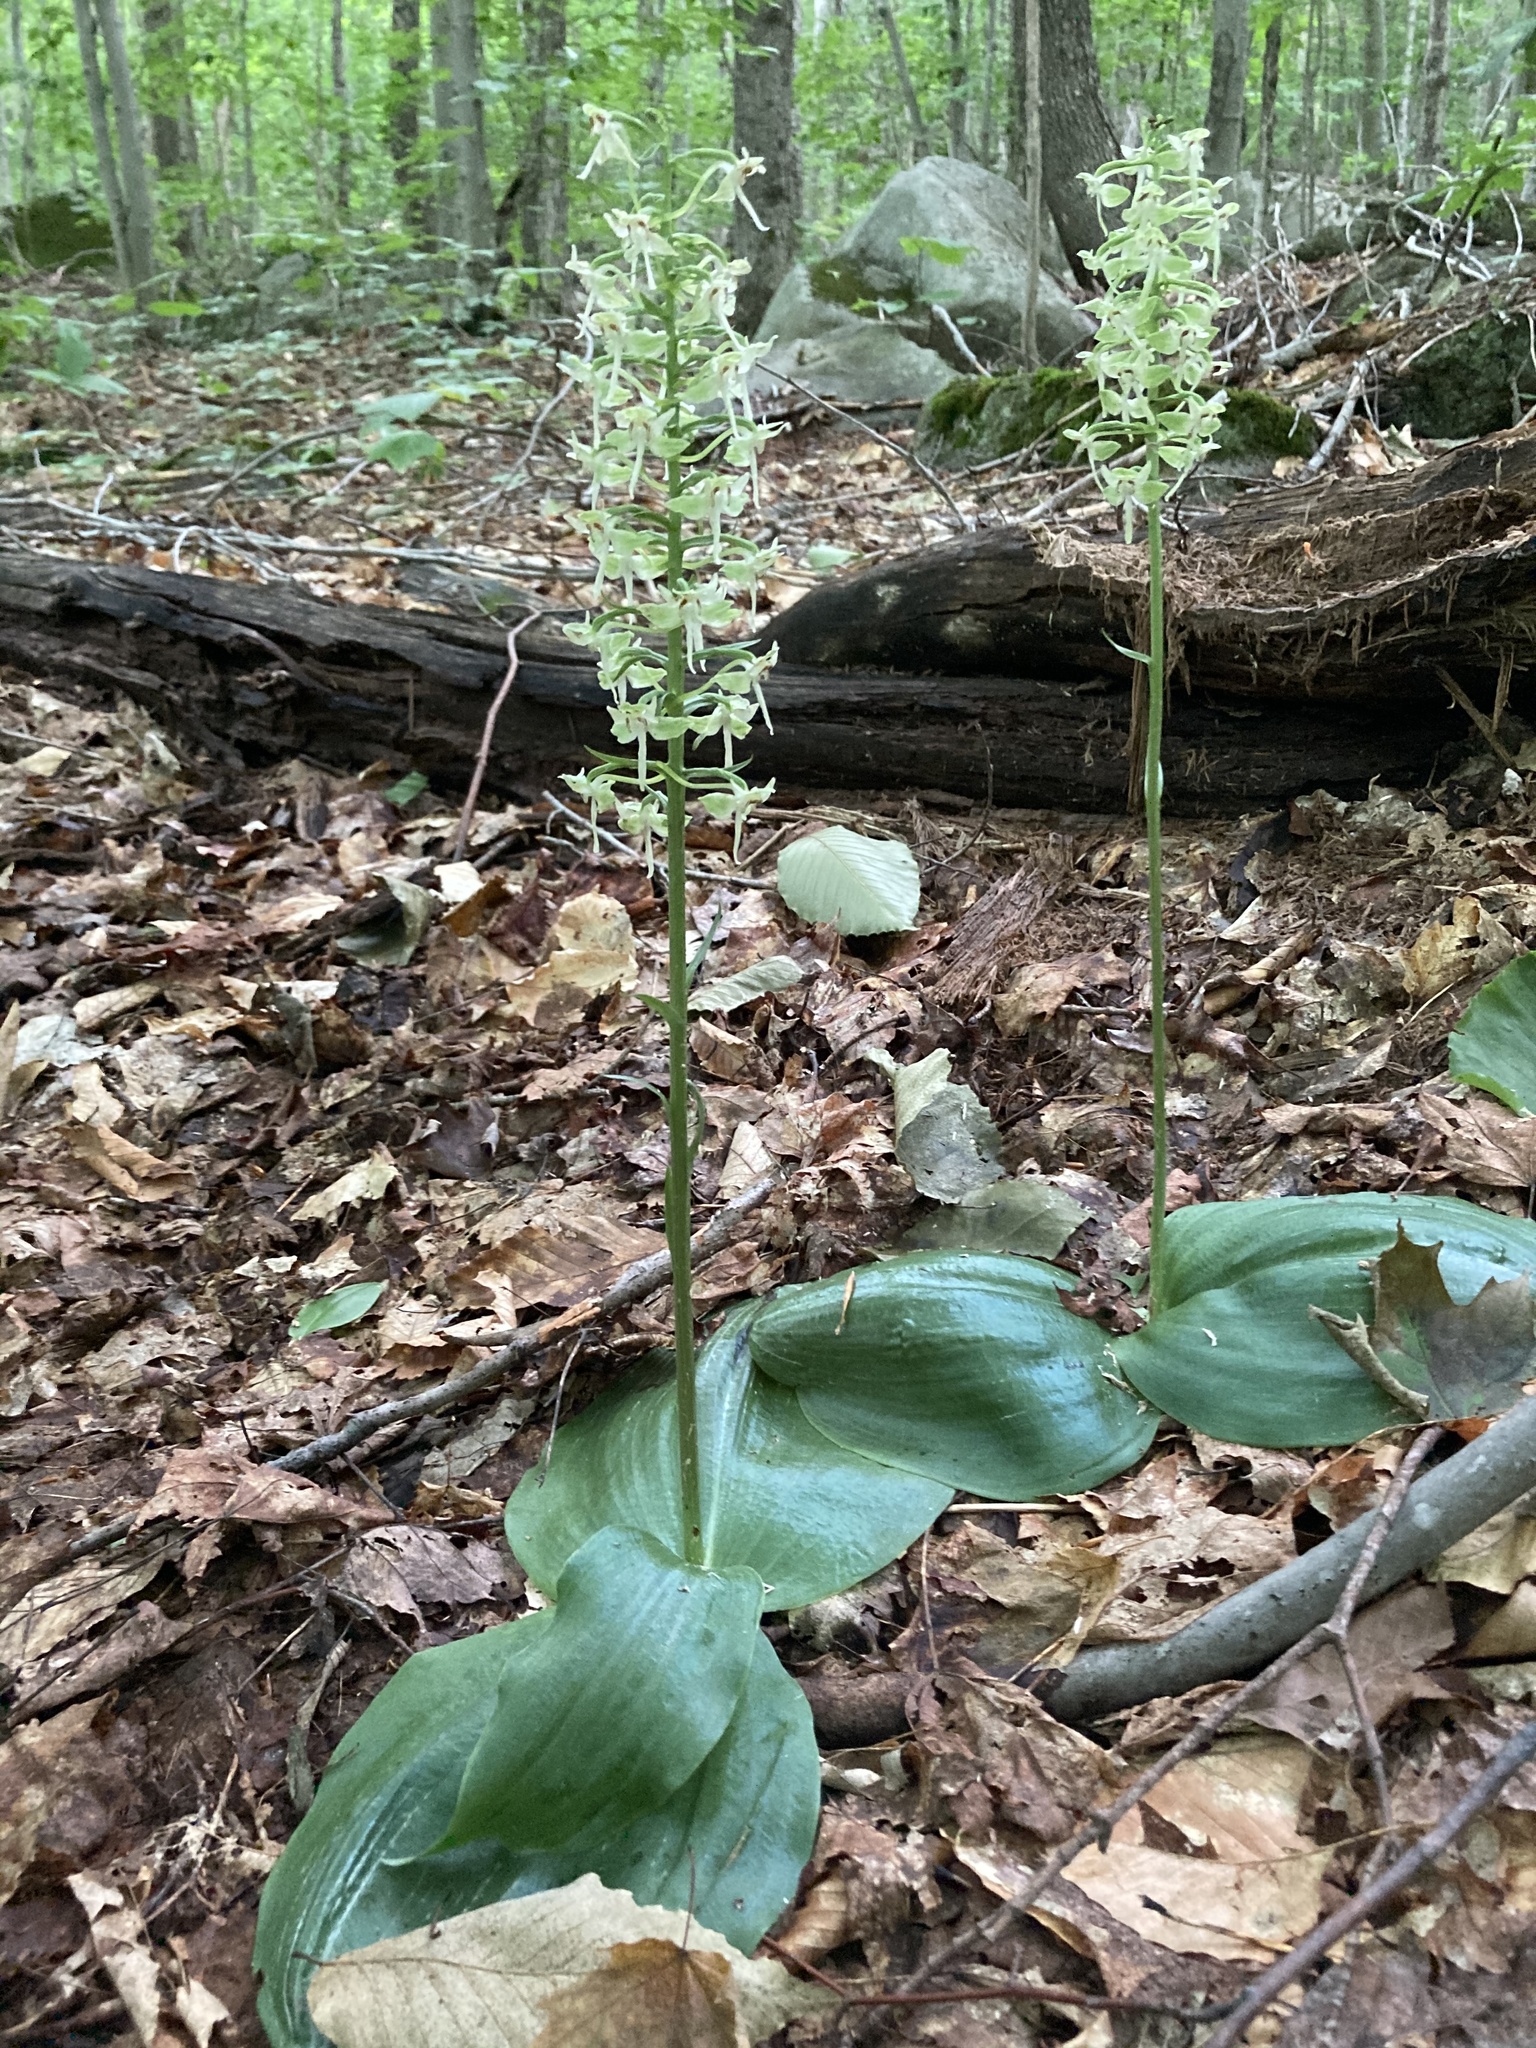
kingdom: Plantae
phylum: Tracheophyta
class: Liliopsida
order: Asparagales
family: Orchidaceae
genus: Platanthera
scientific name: Platanthera orbiculata
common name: Large round-leaved orchid
